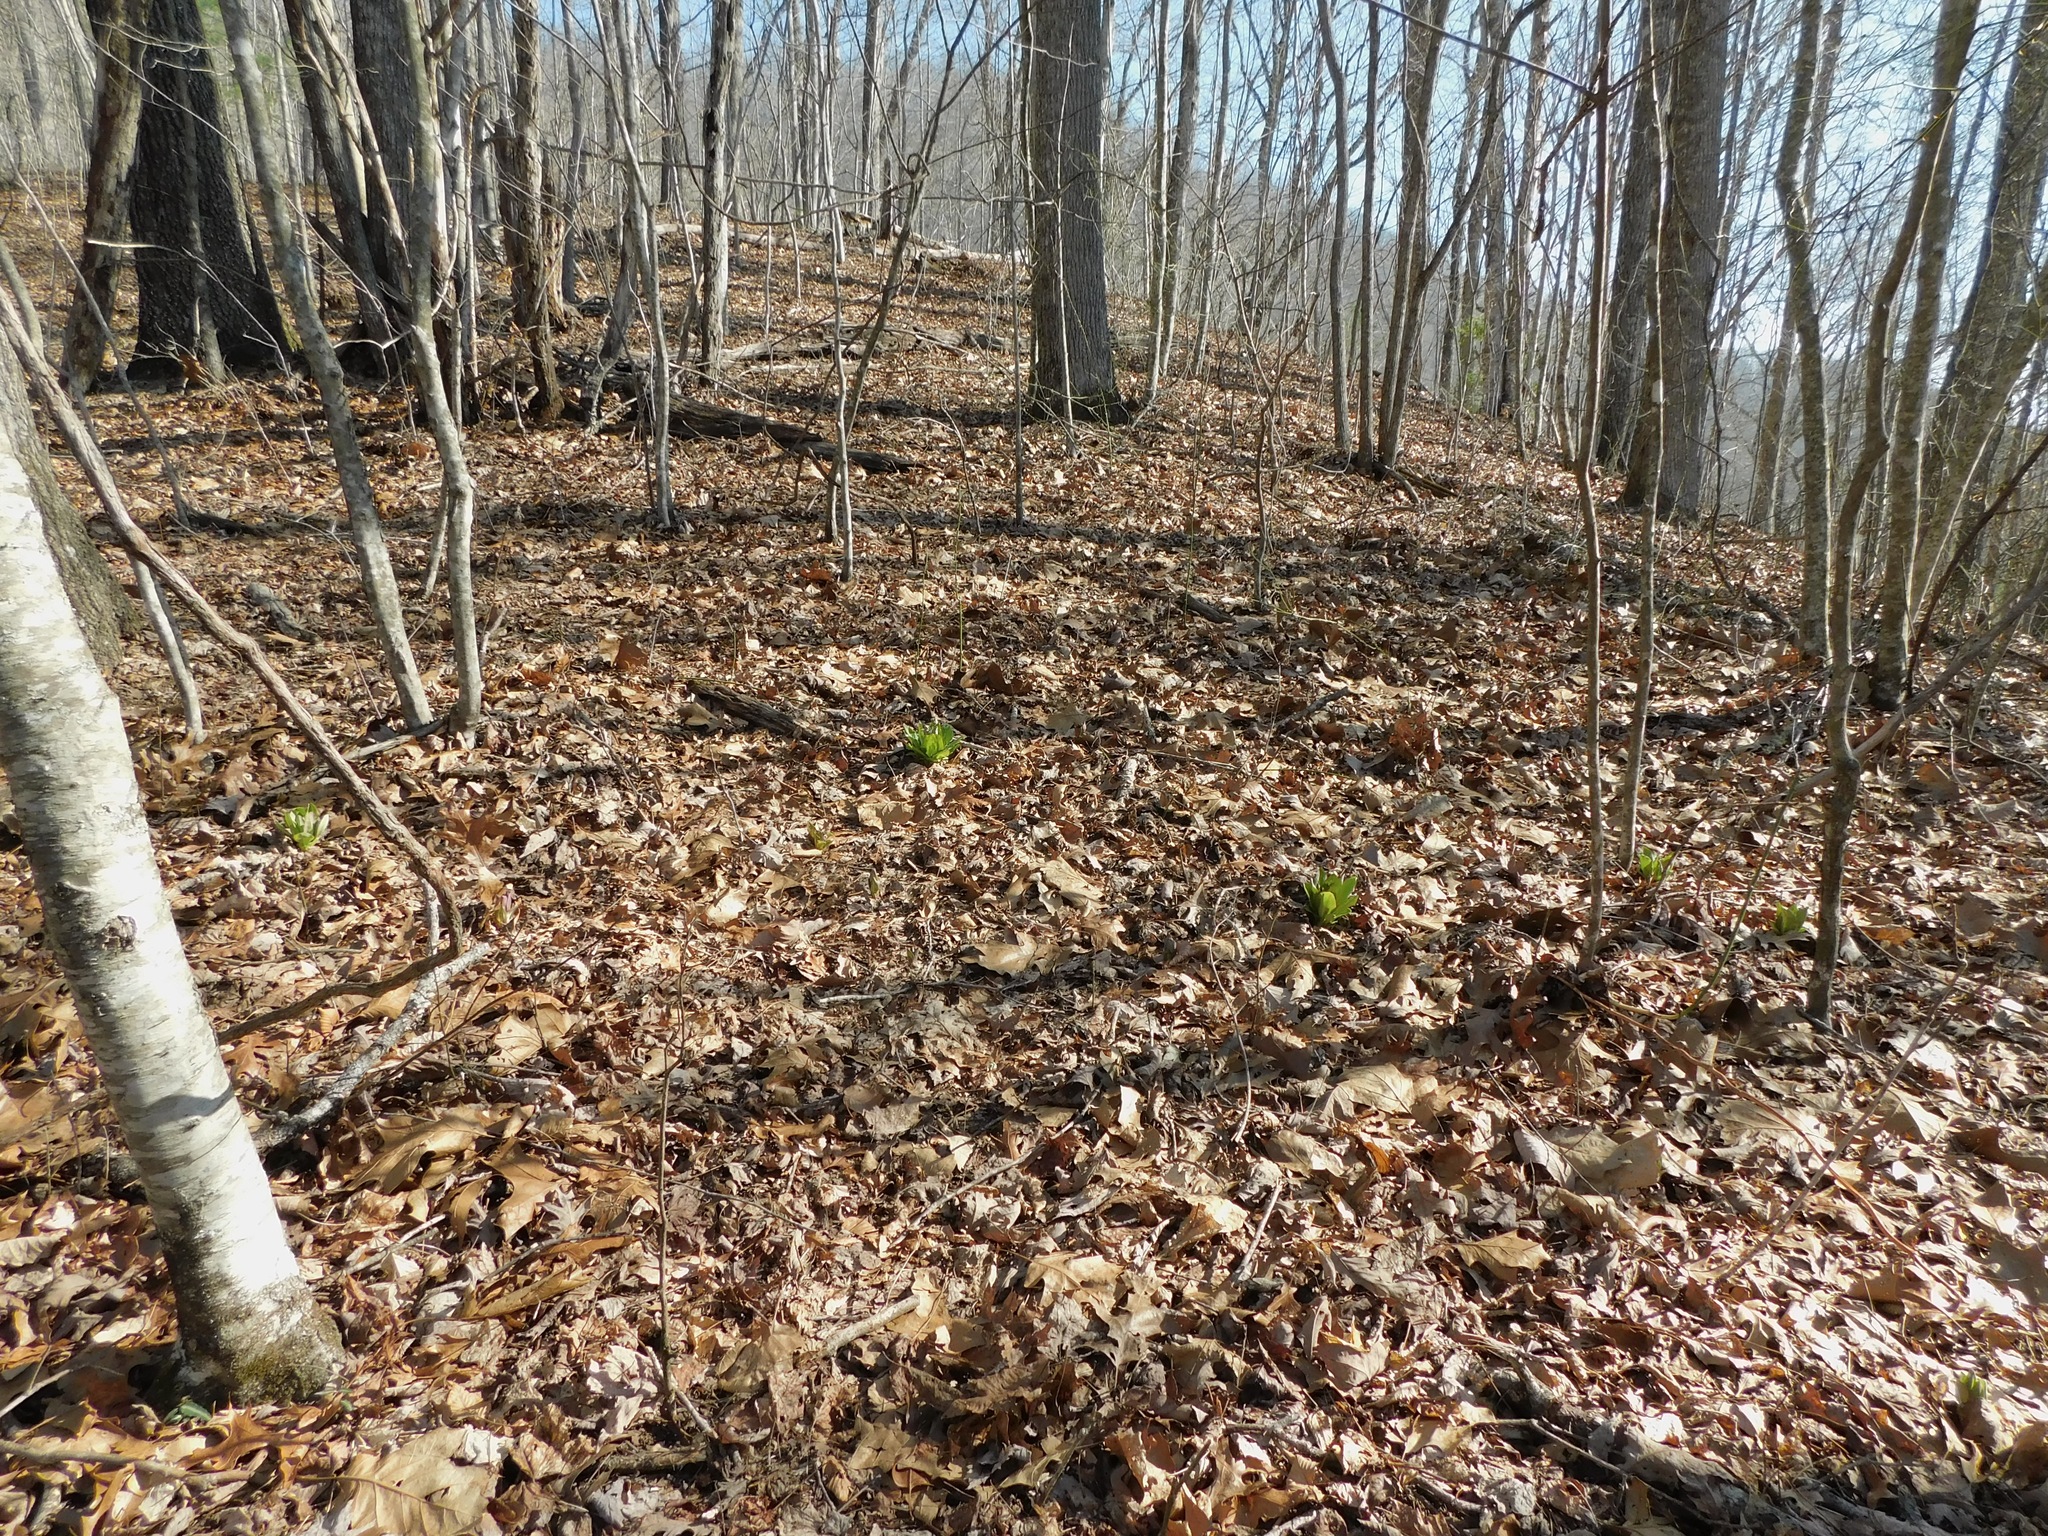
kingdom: Plantae
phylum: Tracheophyta
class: Magnoliopsida
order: Gentianales
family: Gentianaceae
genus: Frasera
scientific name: Frasera caroliniensis
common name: American columbo
